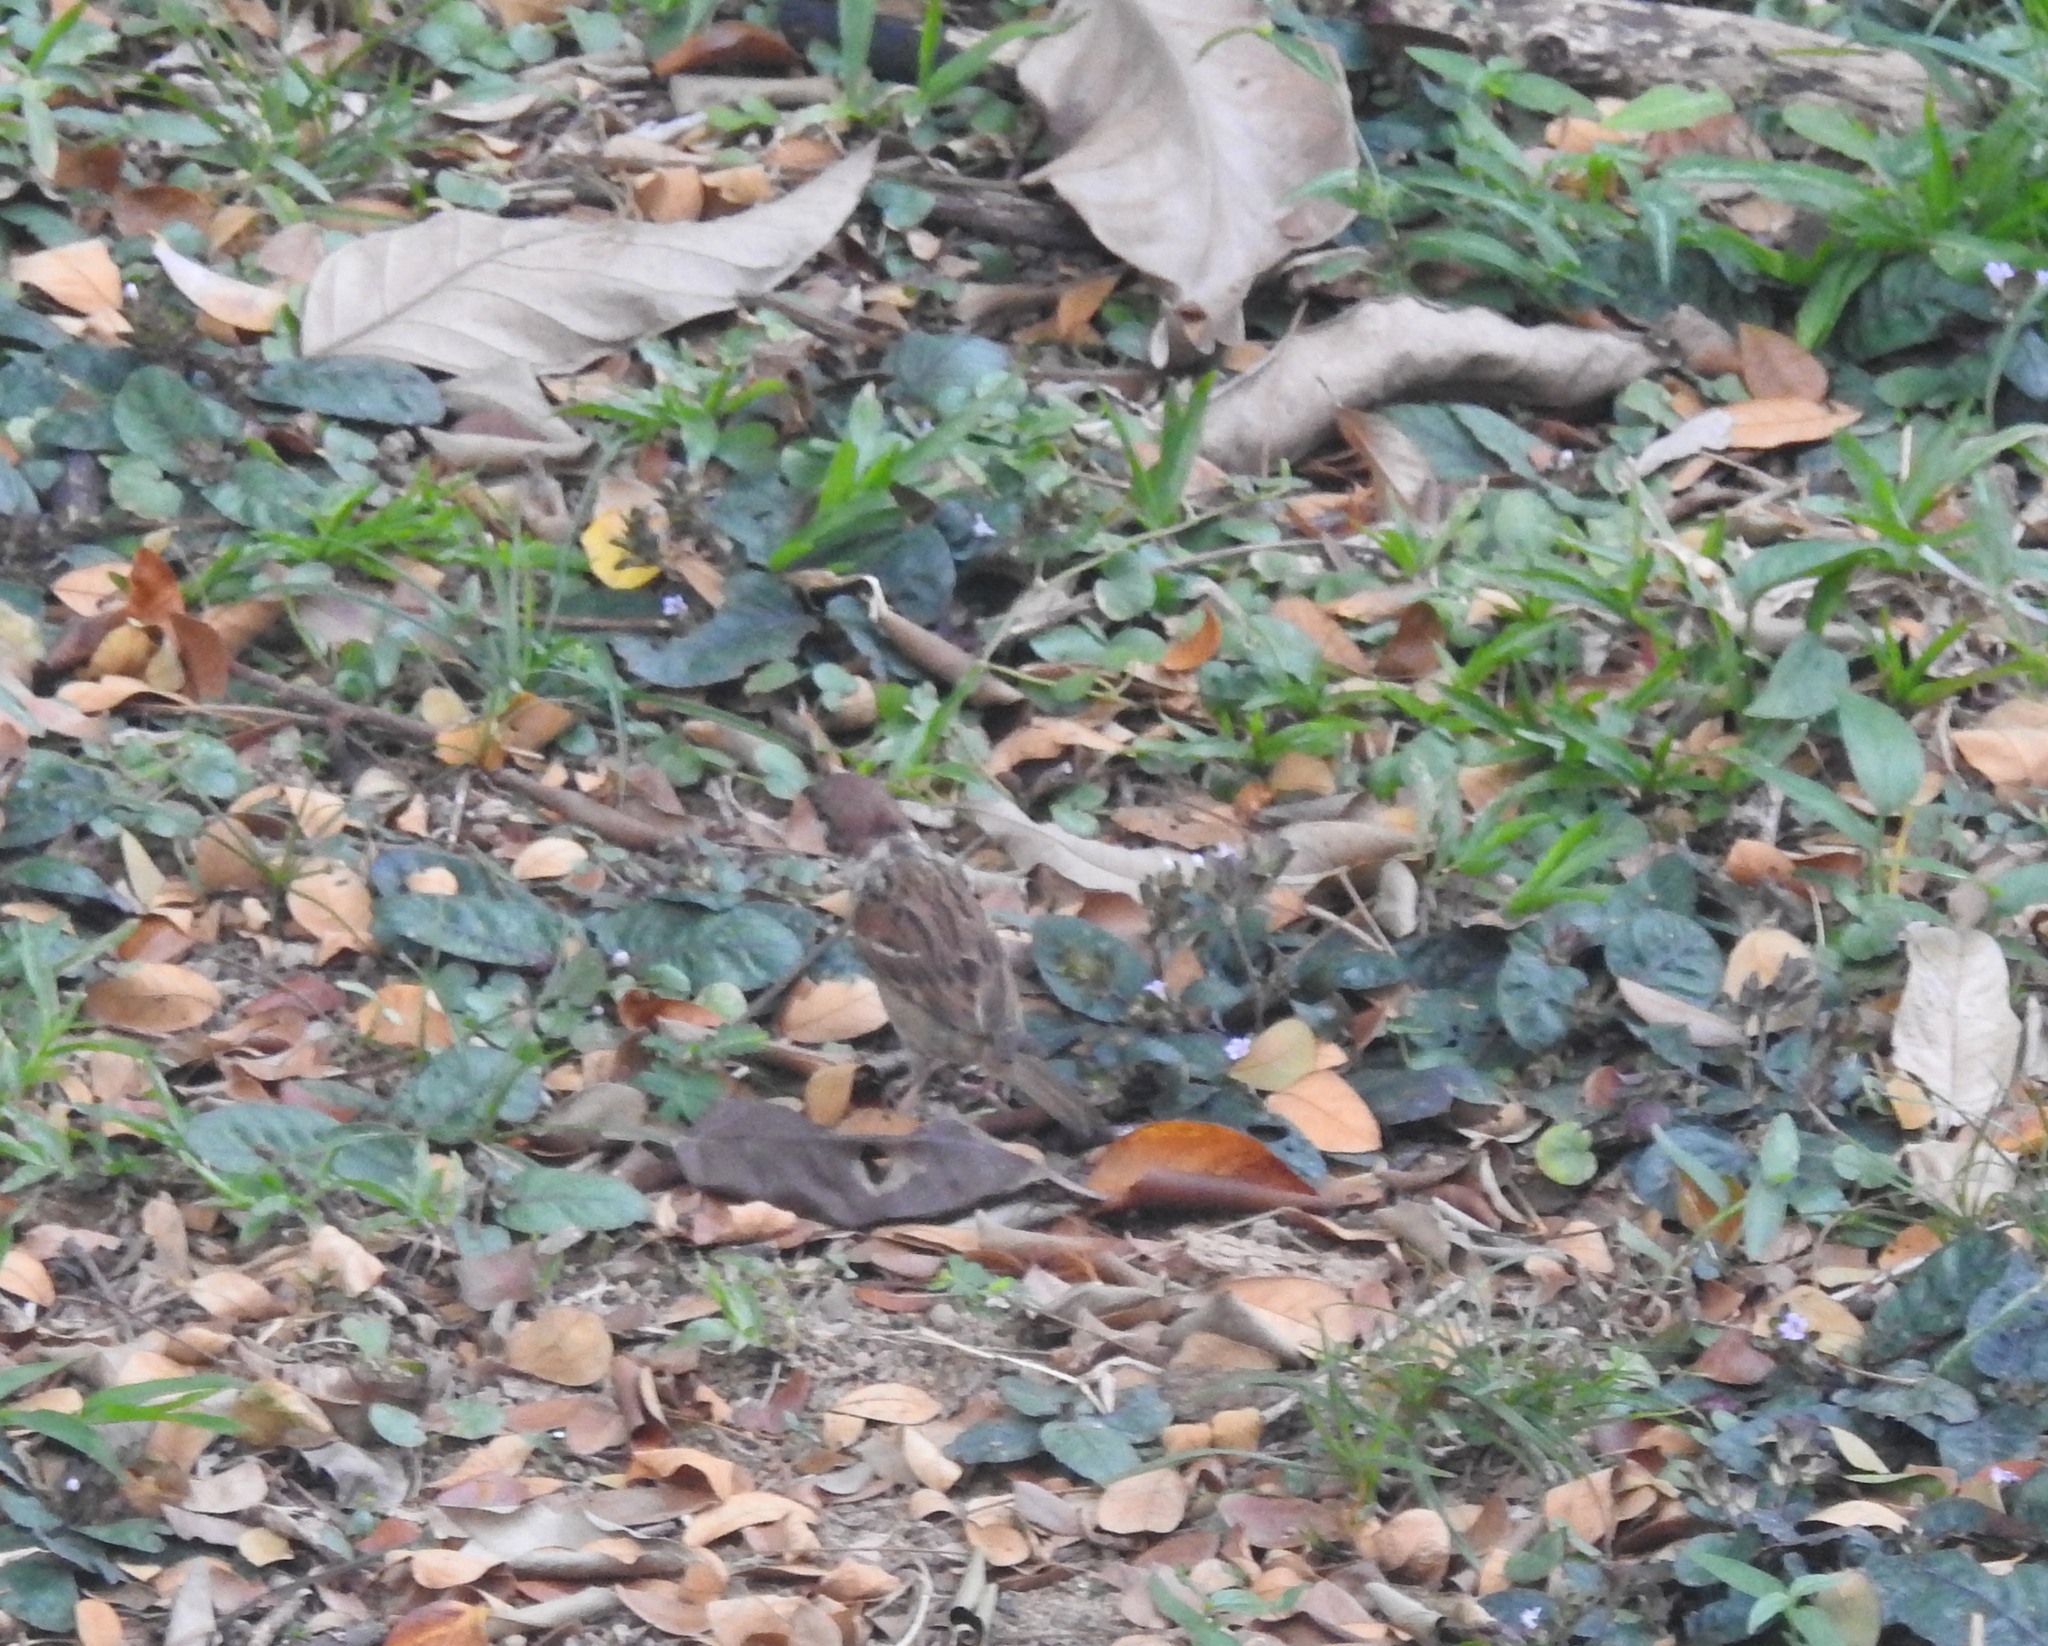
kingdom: Animalia
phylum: Chordata
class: Aves
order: Passeriformes
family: Passeridae
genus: Passer
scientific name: Passer montanus
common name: Eurasian tree sparrow
